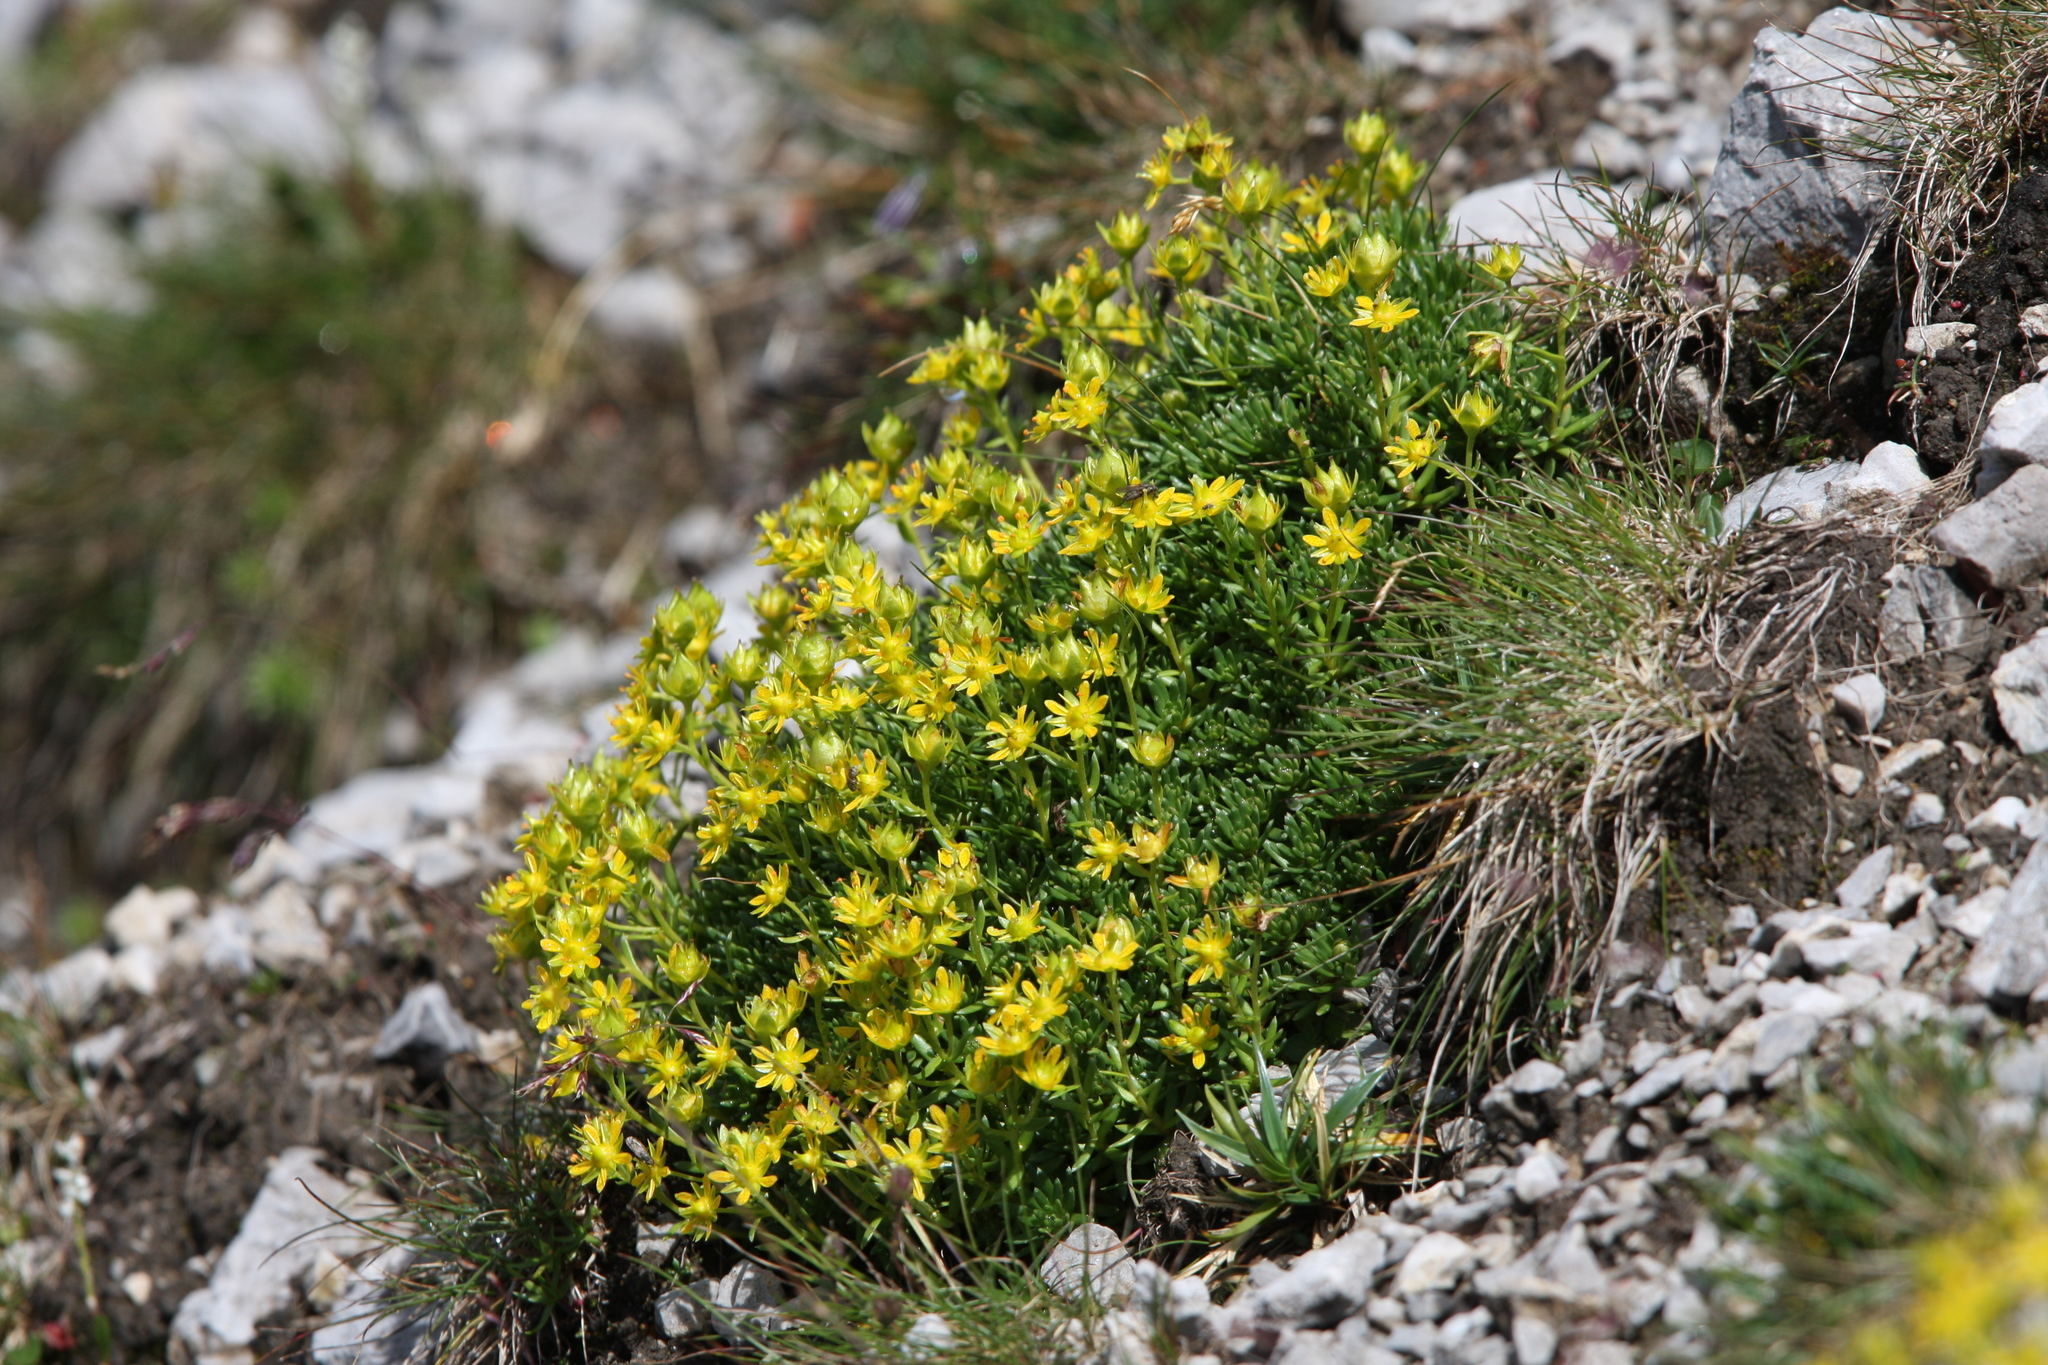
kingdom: Plantae
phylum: Tracheophyta
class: Magnoliopsida
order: Saxifragales
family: Saxifragaceae
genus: Saxifraga
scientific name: Saxifraga aizoides
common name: Yellow mountain saxifrage
